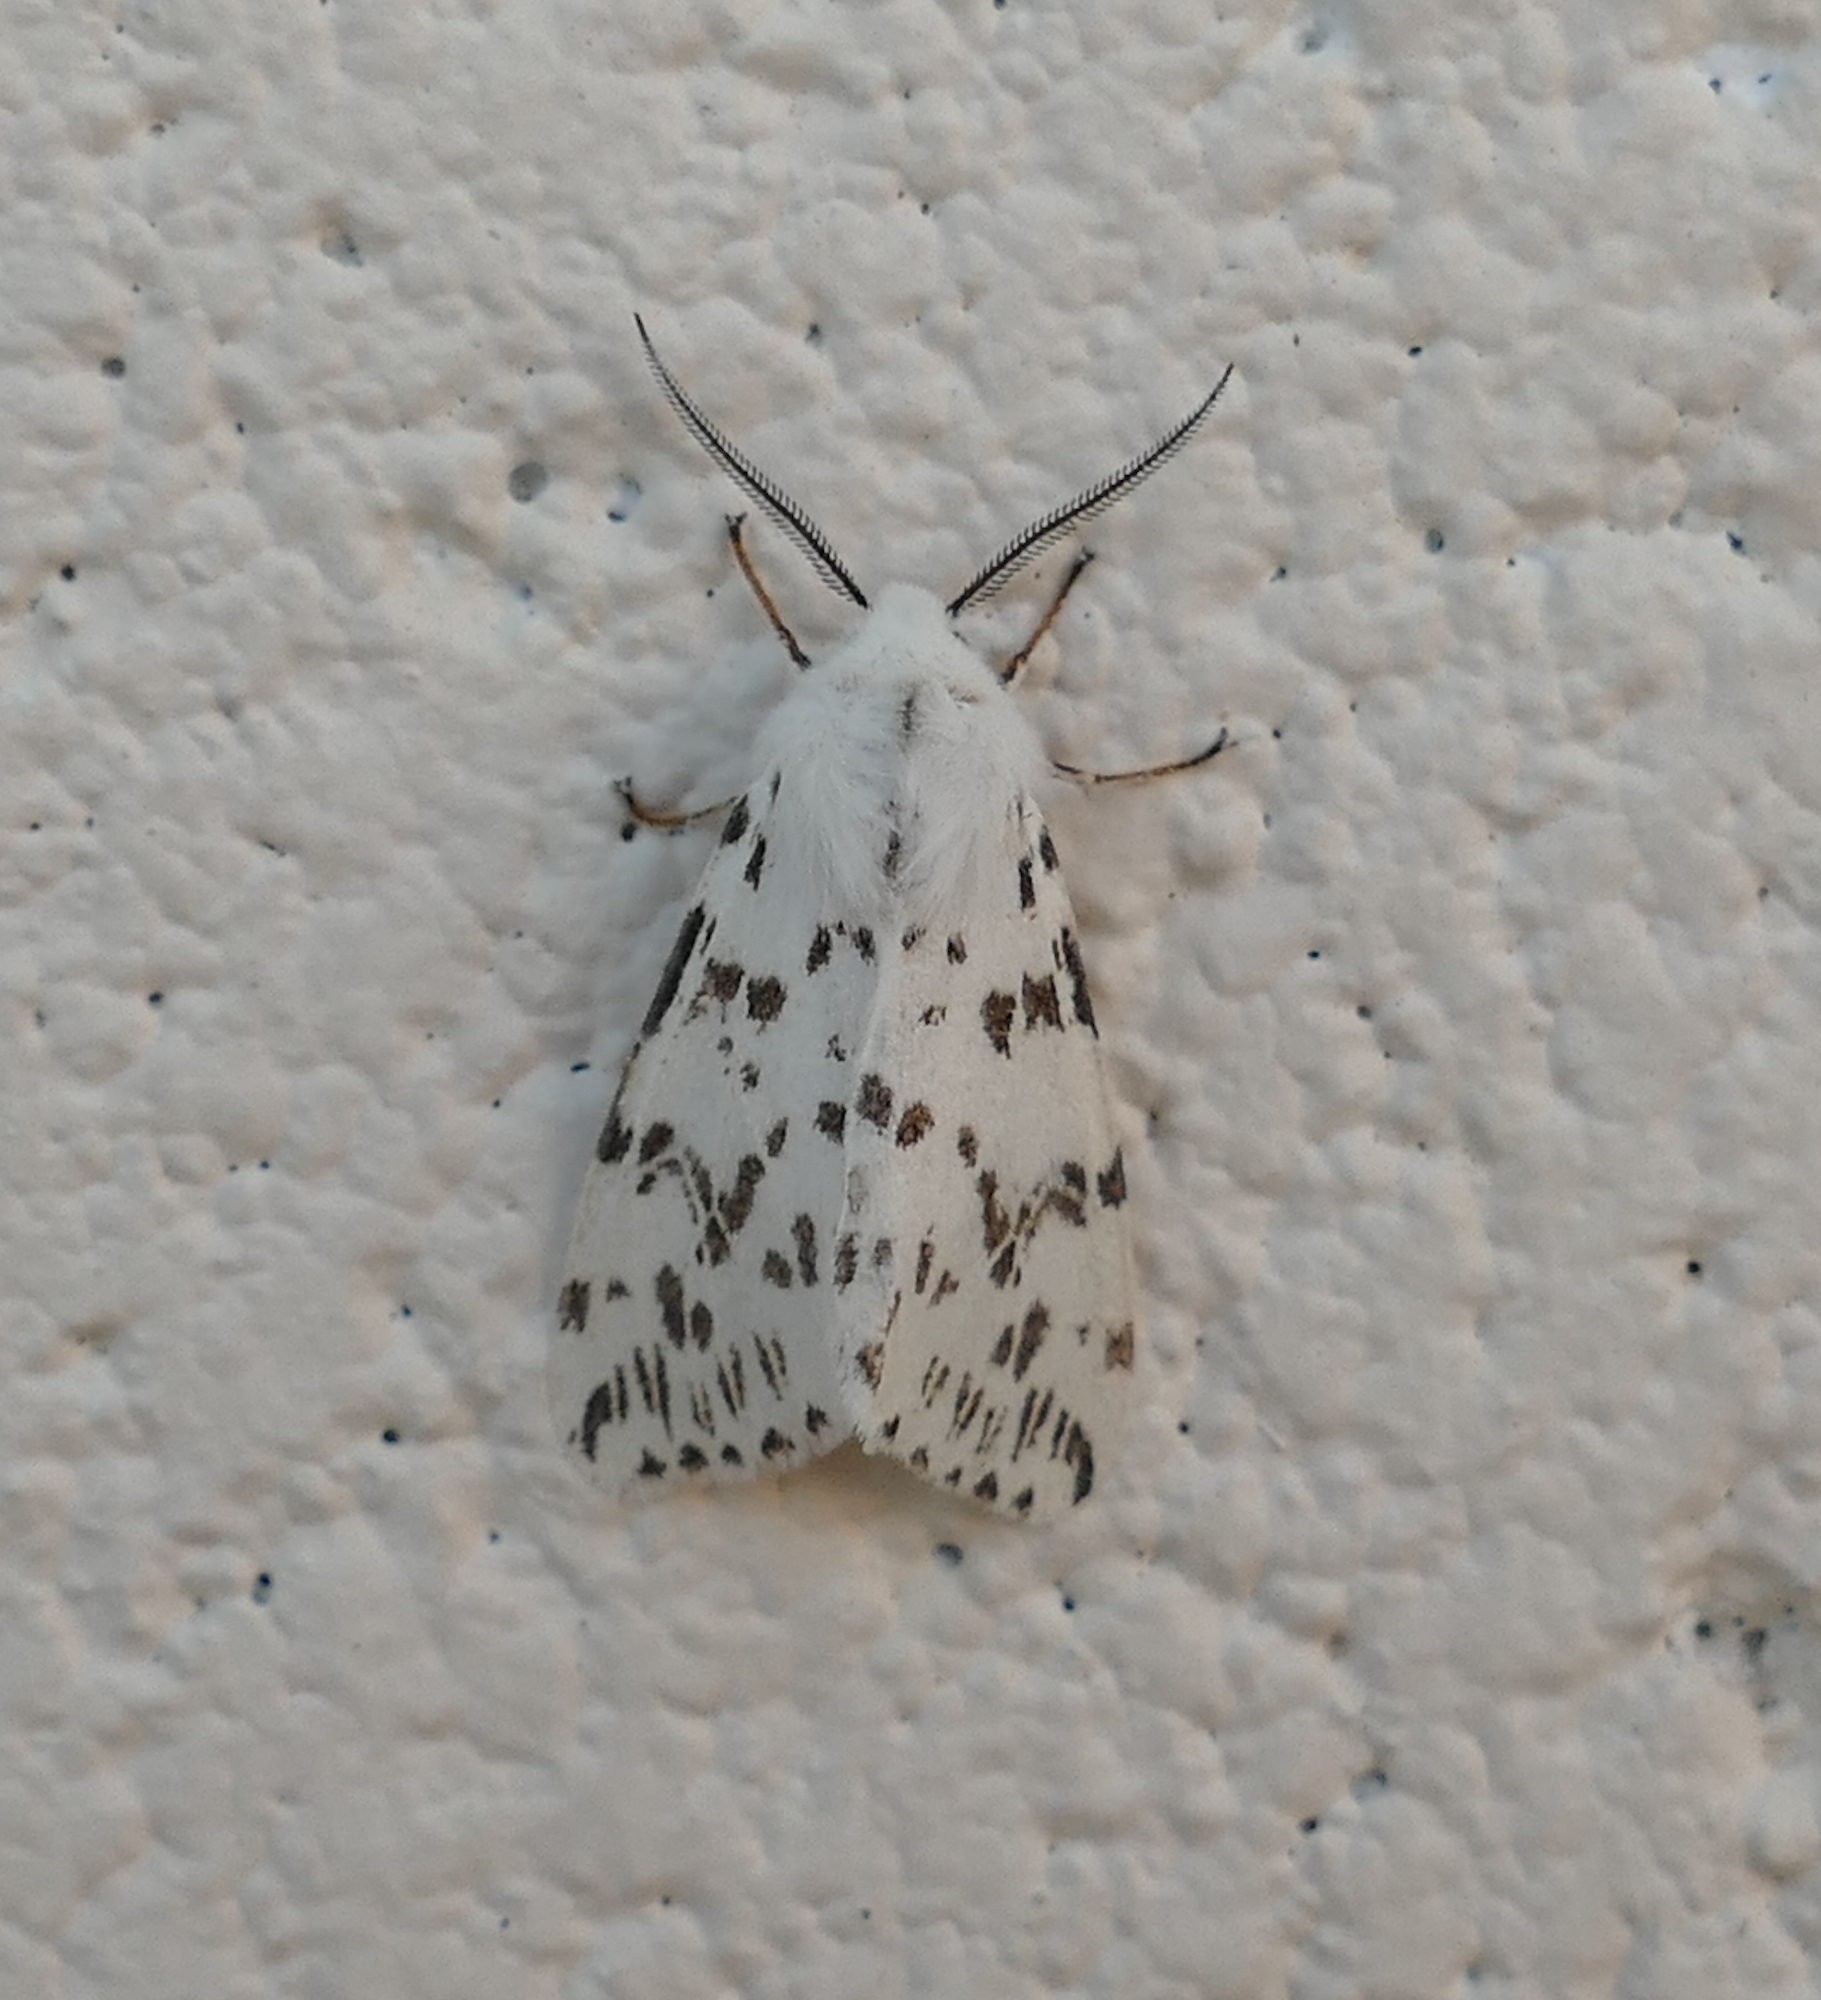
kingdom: Animalia
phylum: Arthropoda
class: Insecta
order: Lepidoptera
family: Erebidae
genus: Hyphantria
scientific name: Hyphantria cunea
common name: American white moth
